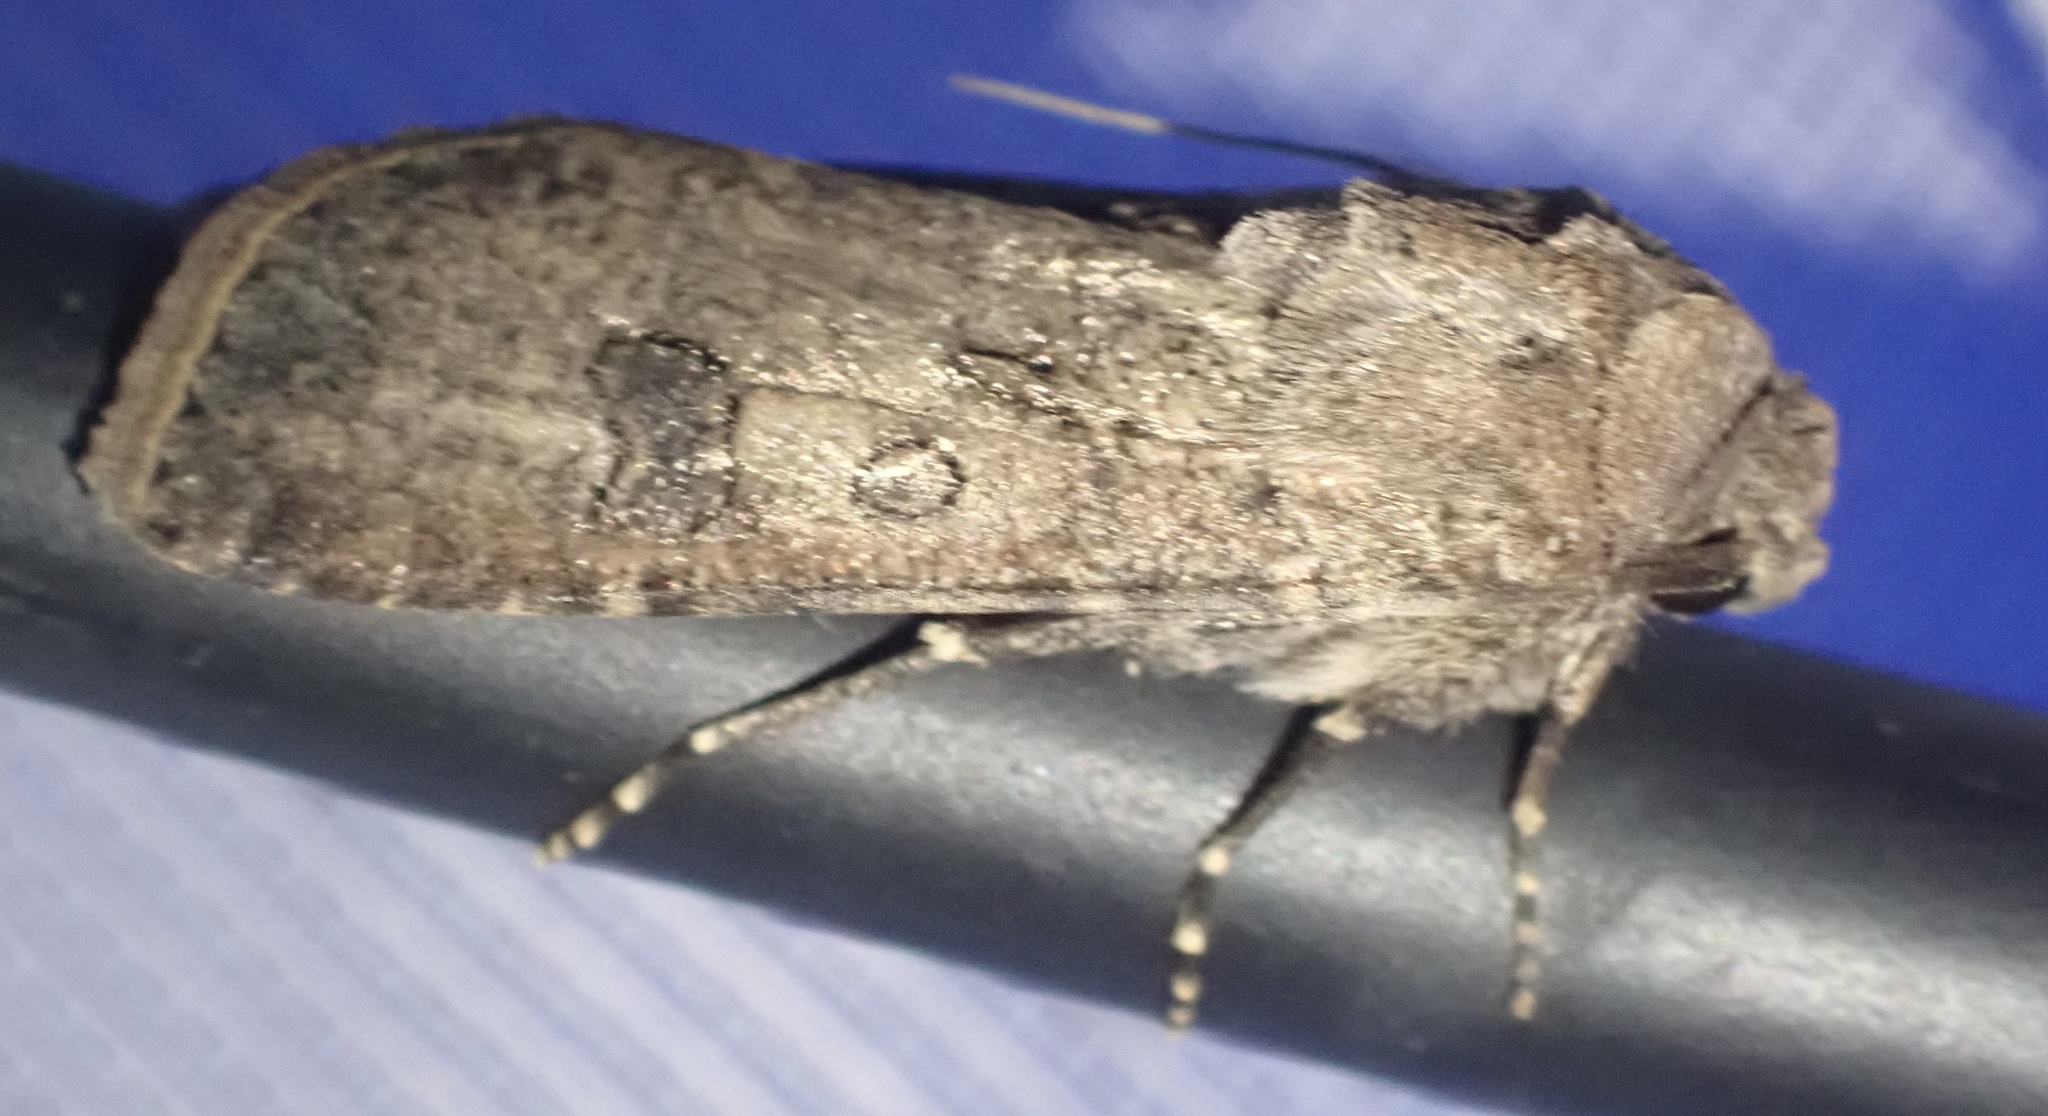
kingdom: Animalia
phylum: Arthropoda
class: Insecta
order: Lepidoptera
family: Noctuidae
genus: Agrotis
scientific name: Agrotis segetum
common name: Turnip moth
